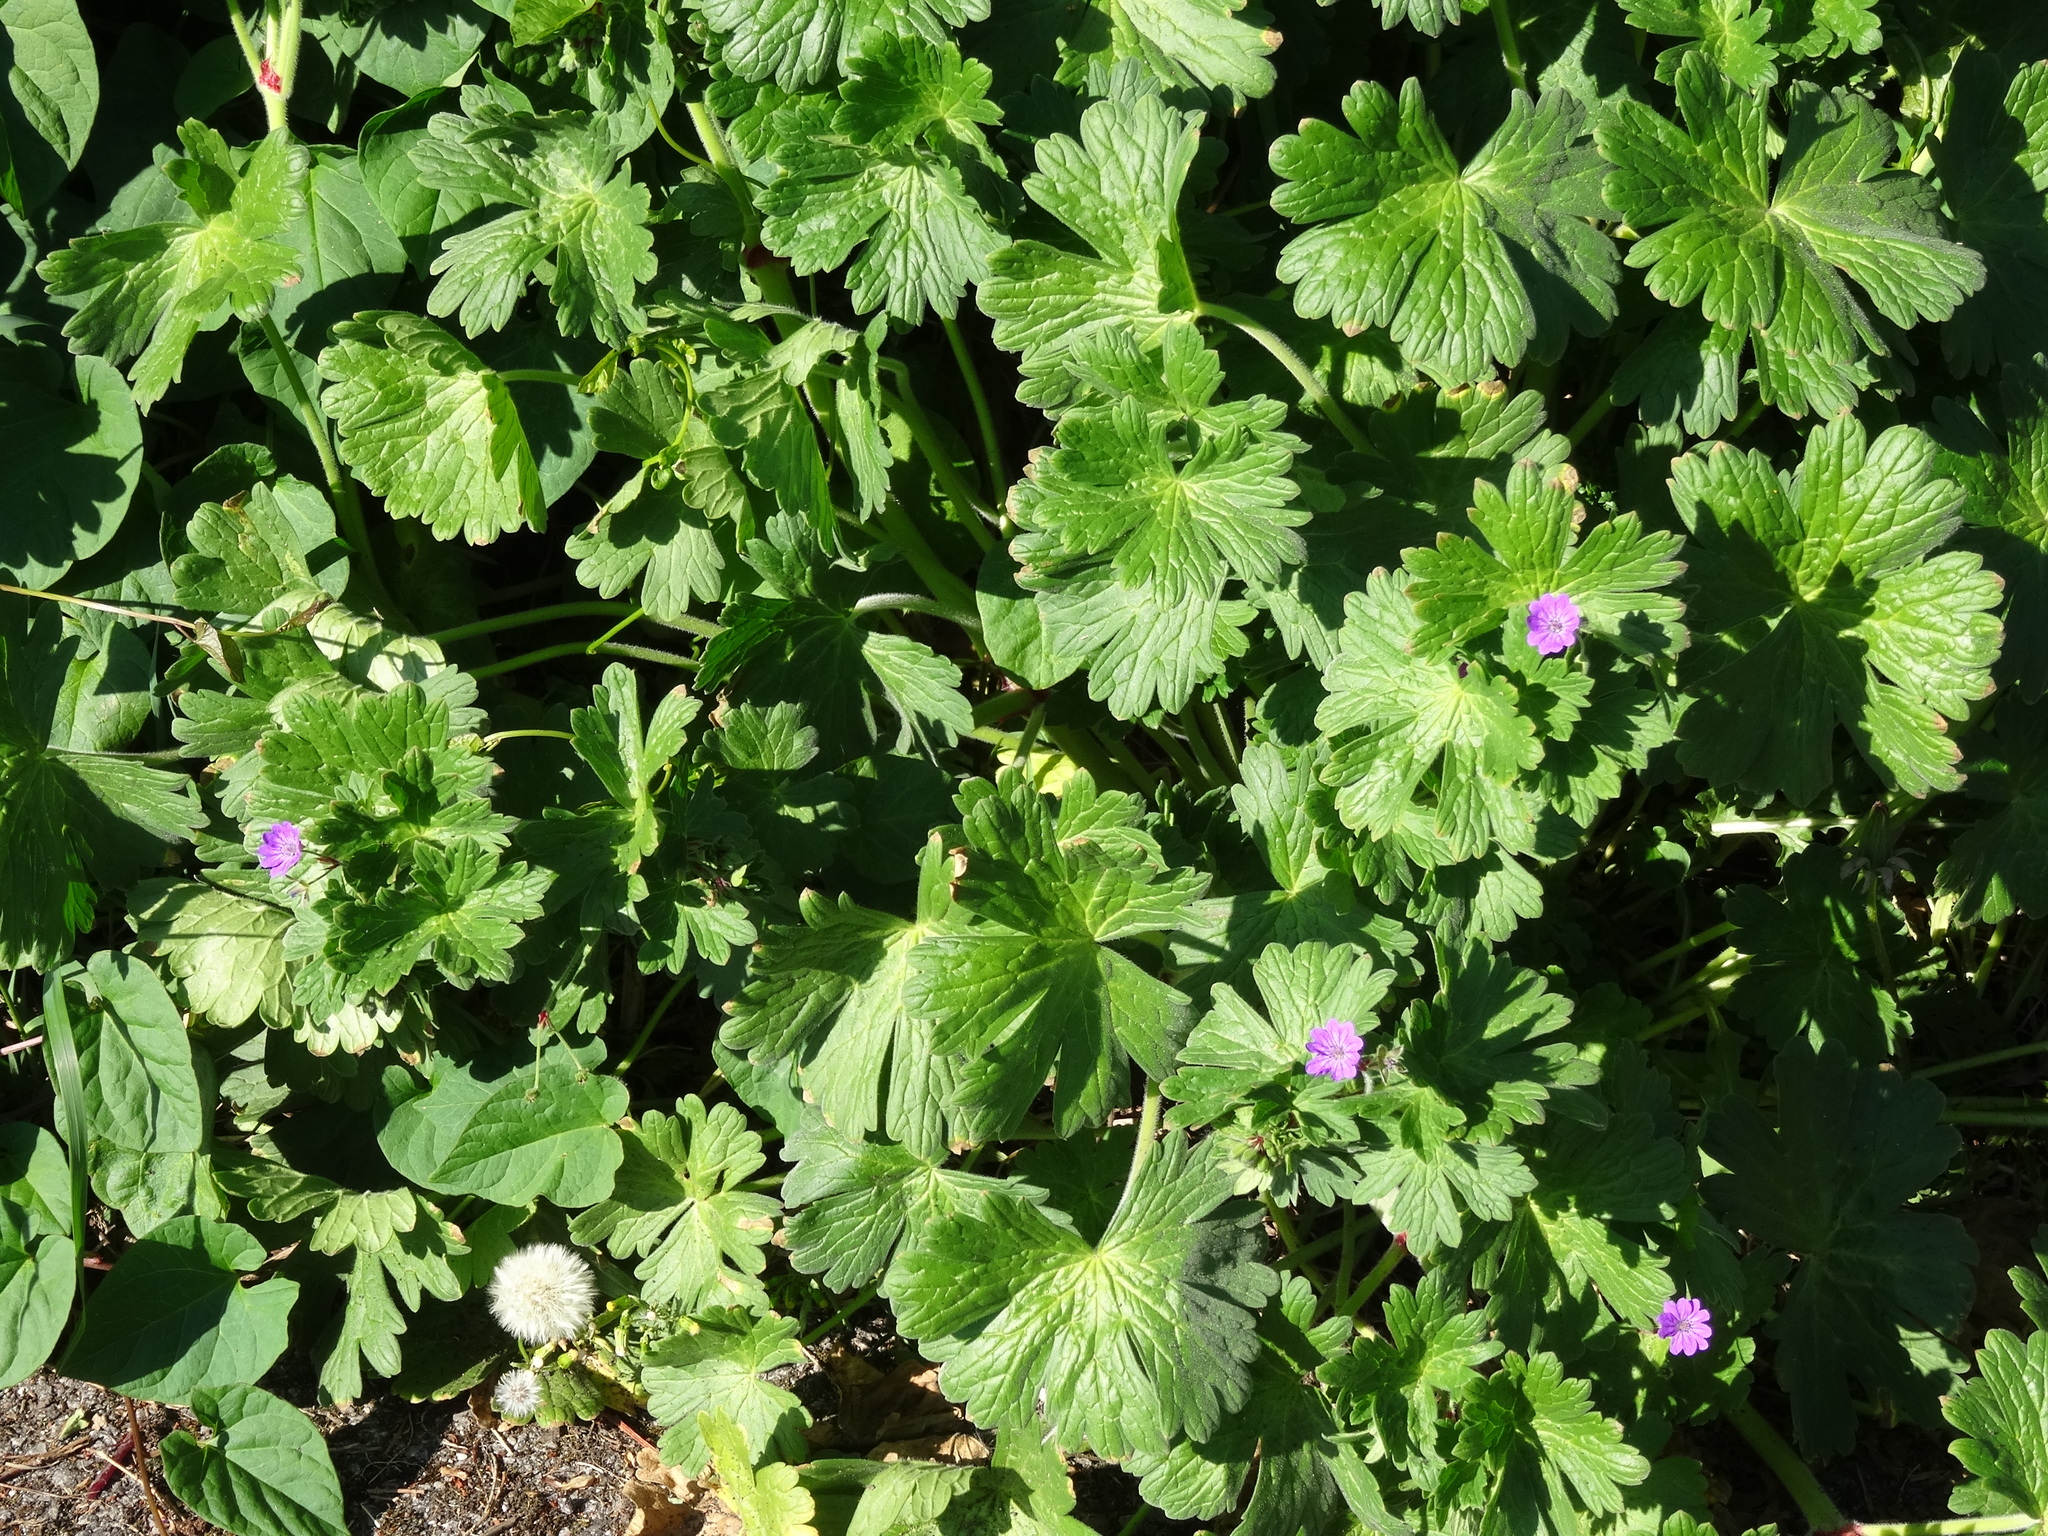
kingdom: Plantae
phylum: Tracheophyta
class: Magnoliopsida
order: Geraniales
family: Geraniaceae
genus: Geranium
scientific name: Geranium molle
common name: Dove's-foot crane's-bill
